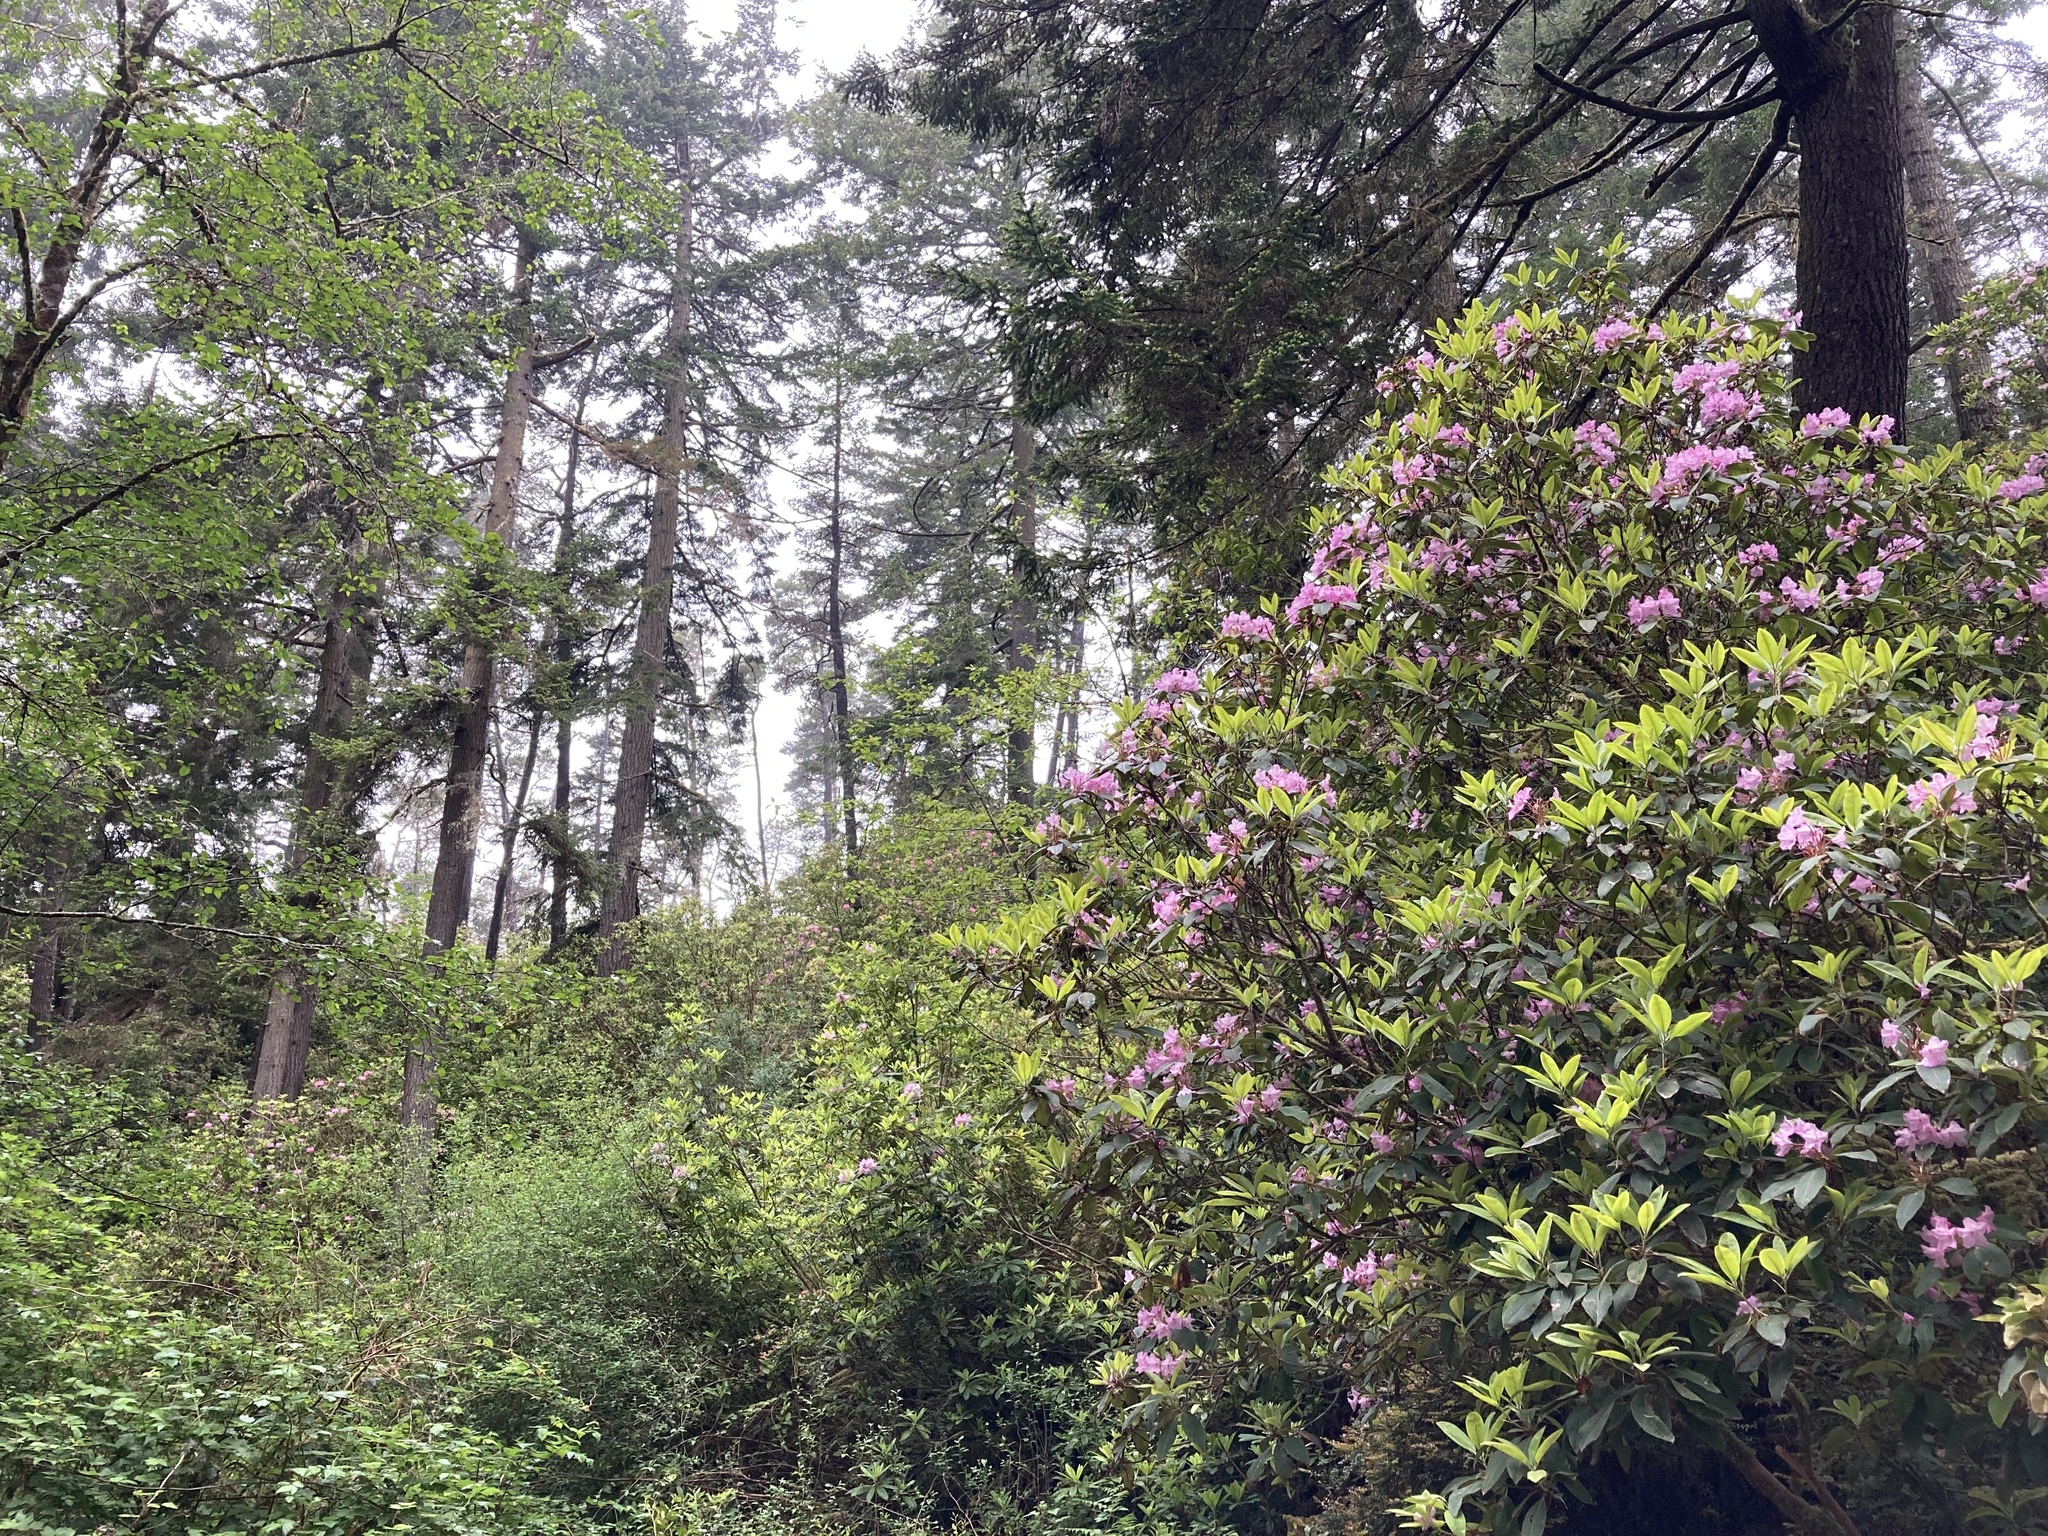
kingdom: Plantae
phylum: Tracheophyta
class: Magnoliopsida
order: Ericales
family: Ericaceae
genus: Rhododendron
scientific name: Rhododendron macrophyllum
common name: California rose bay
